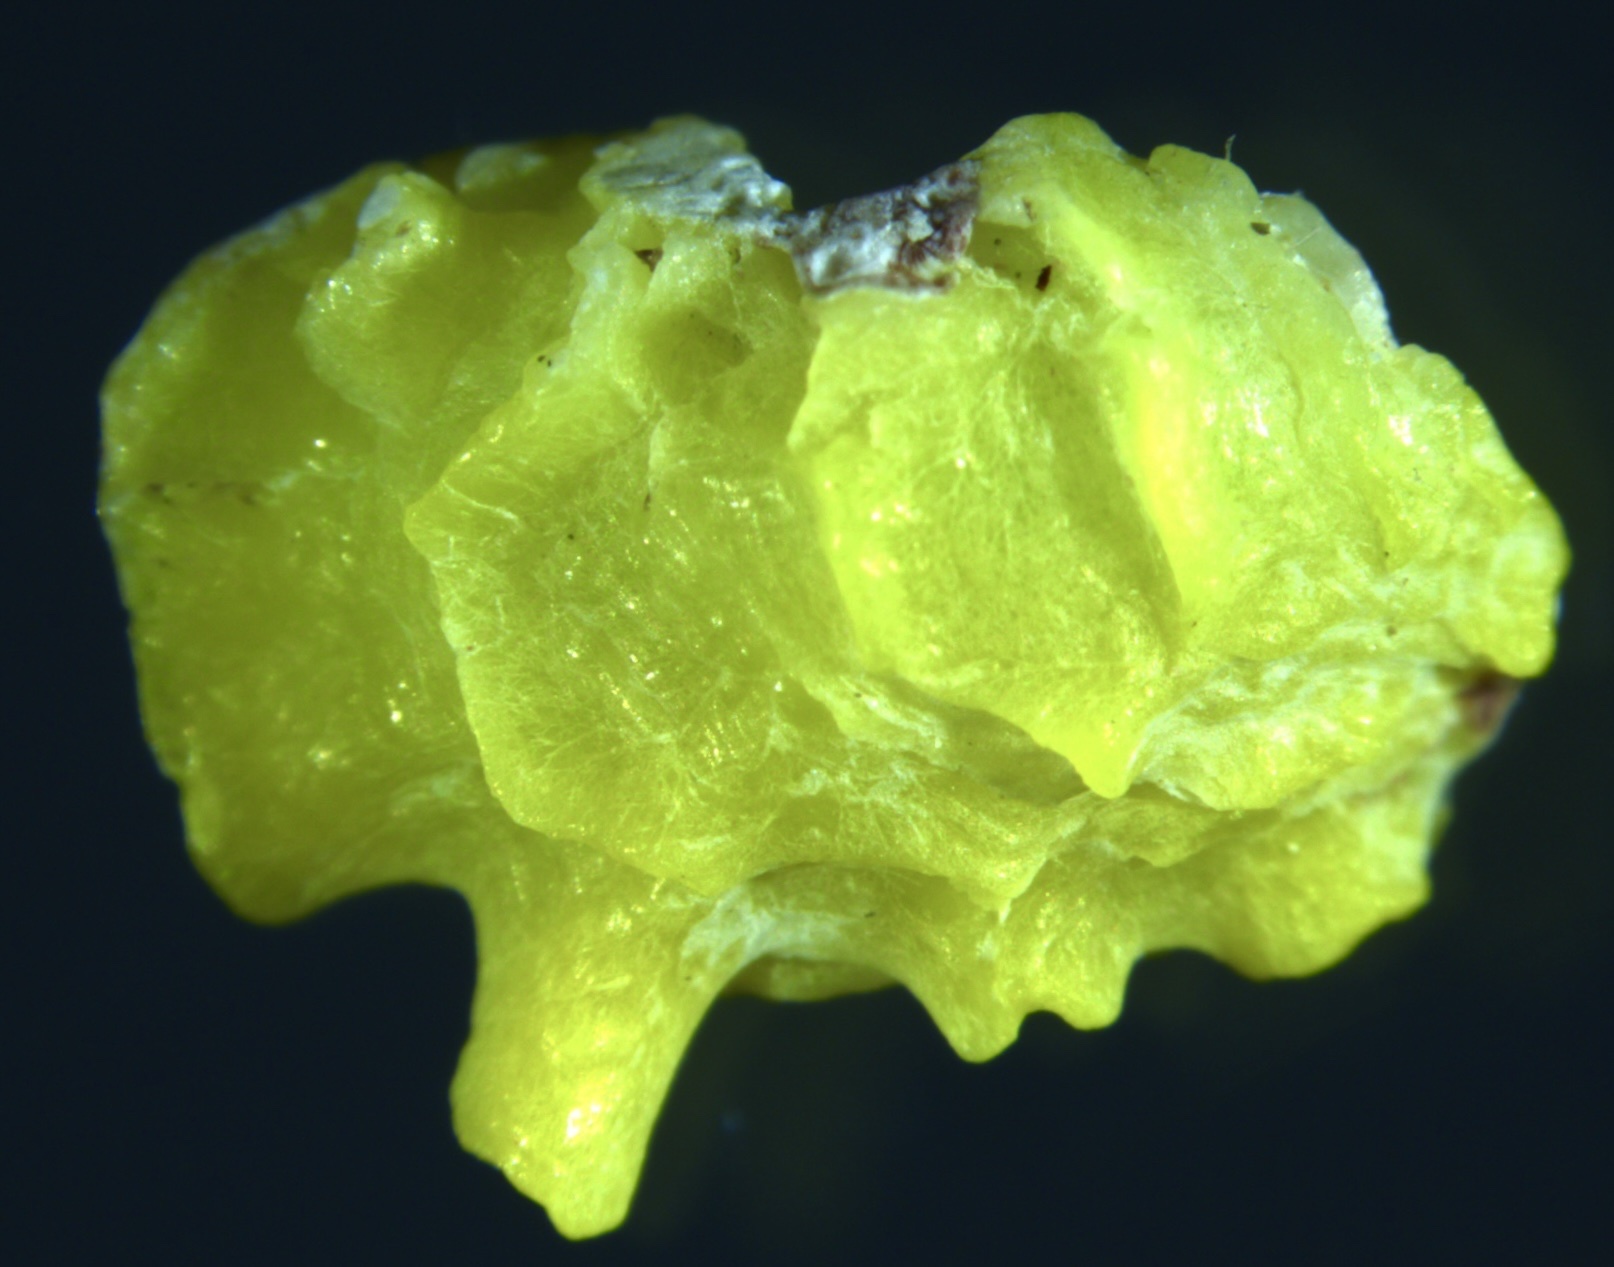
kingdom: Animalia
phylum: Mollusca
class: Bivalvia
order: Venerida
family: Chamidae
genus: Chama
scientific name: Chama macerophylla
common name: Leafy jewelbox
